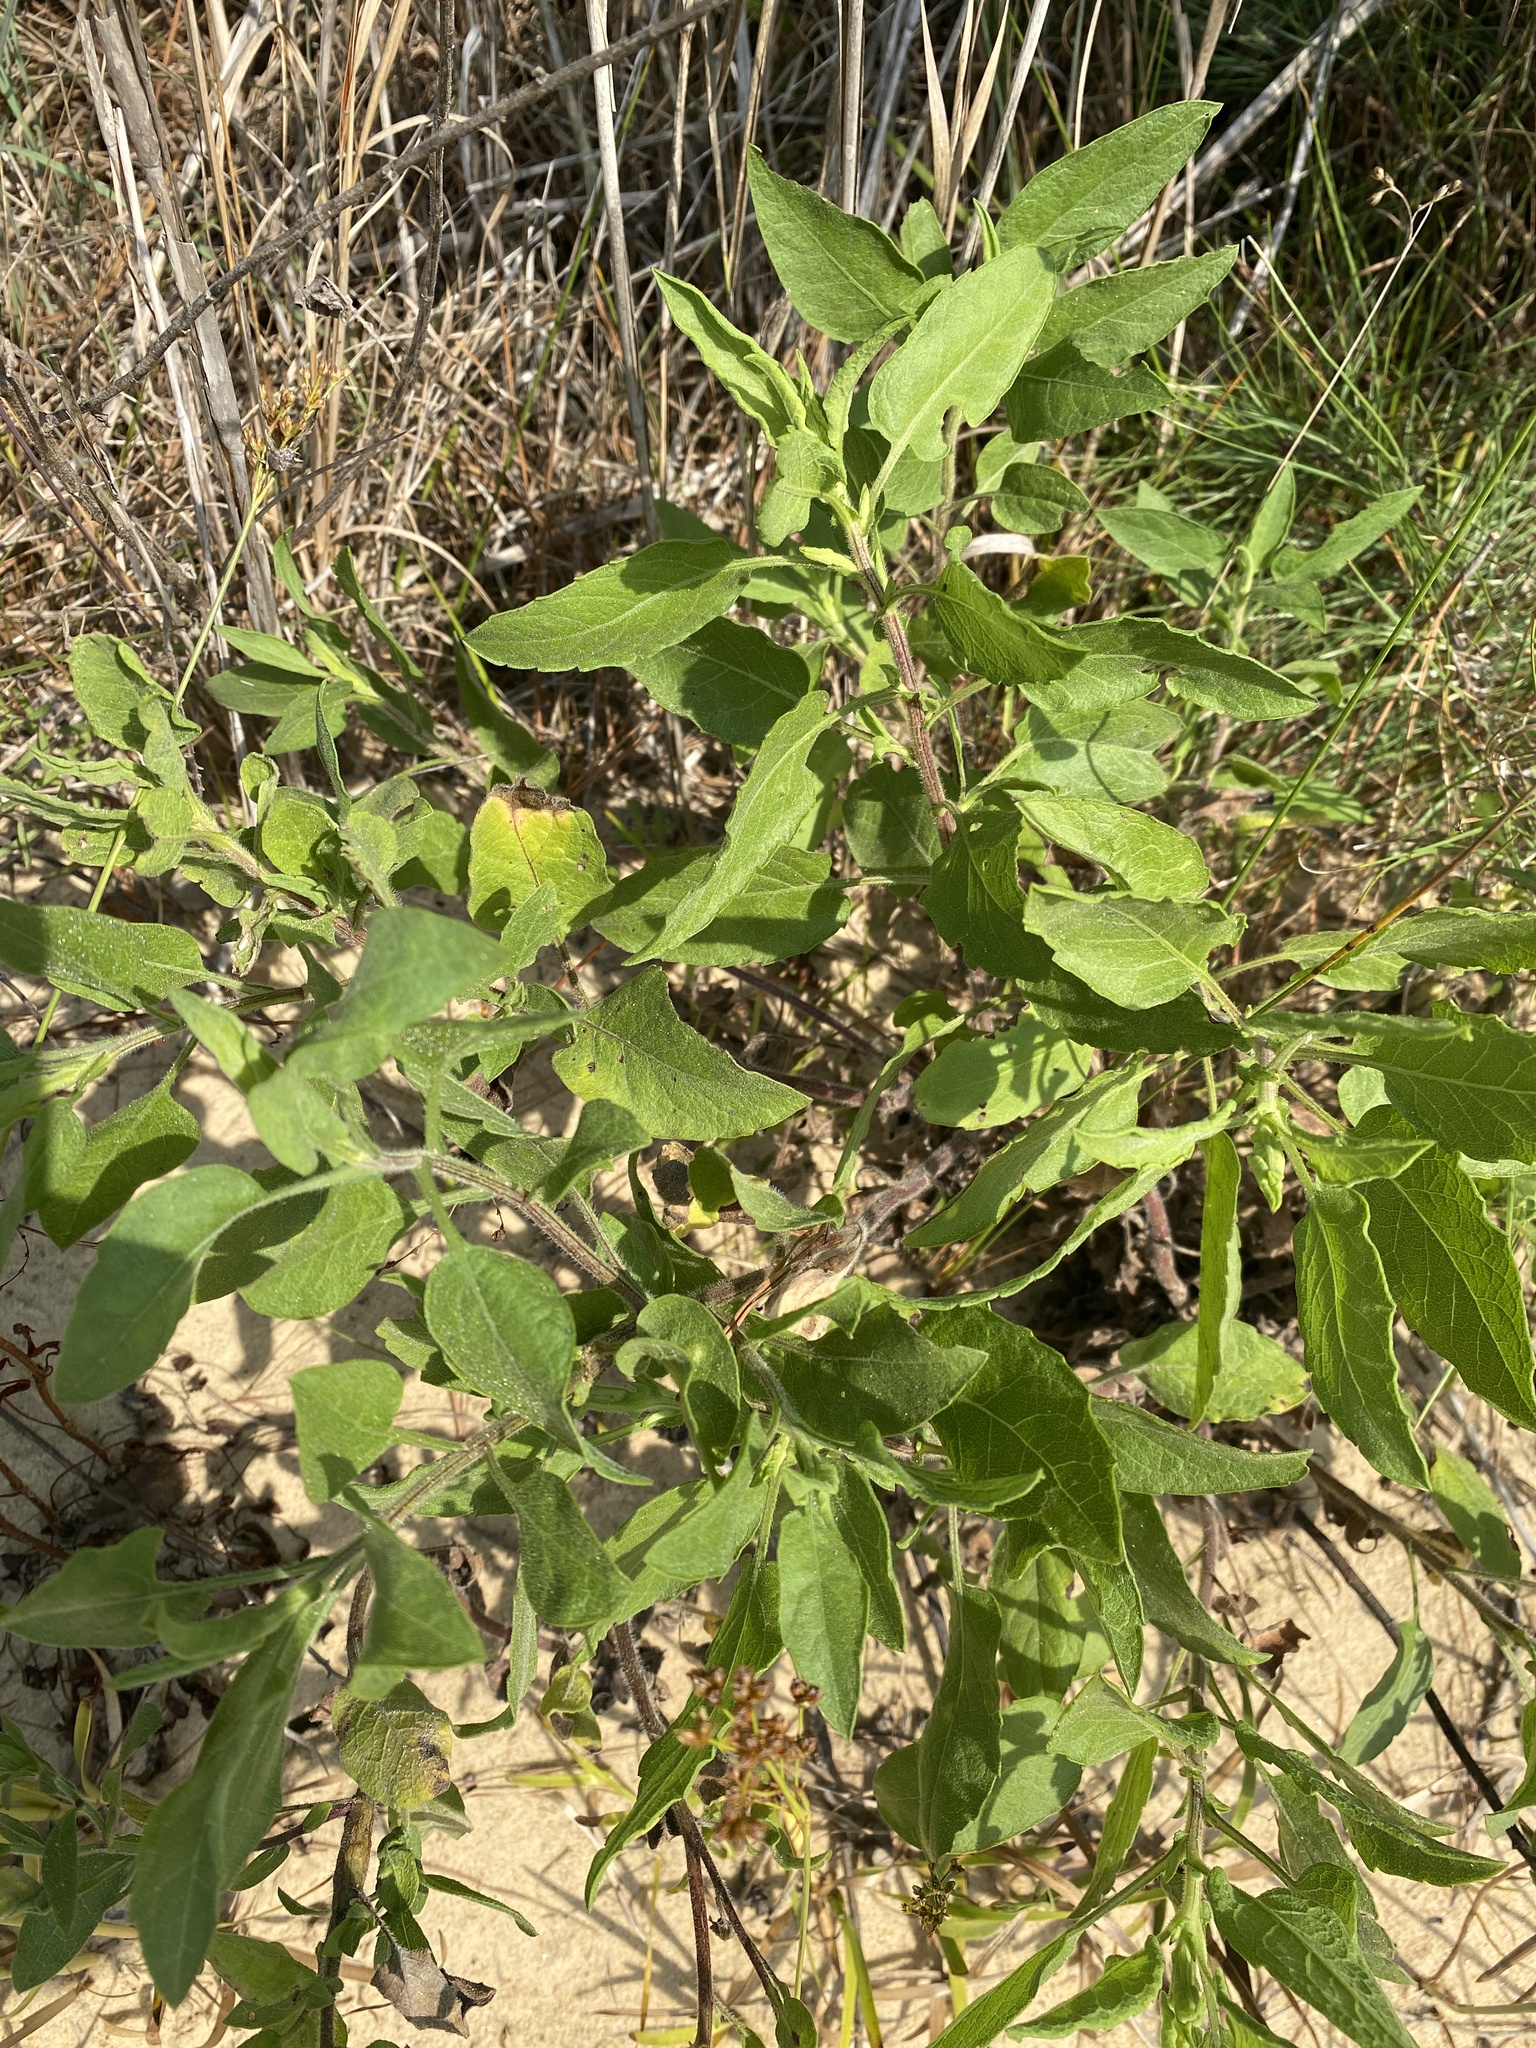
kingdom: Plantae
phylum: Tracheophyta
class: Magnoliopsida
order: Asterales
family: Asteraceae
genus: Heterotheca
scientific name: Heterotheca subaxillaris
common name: Camphorweed
